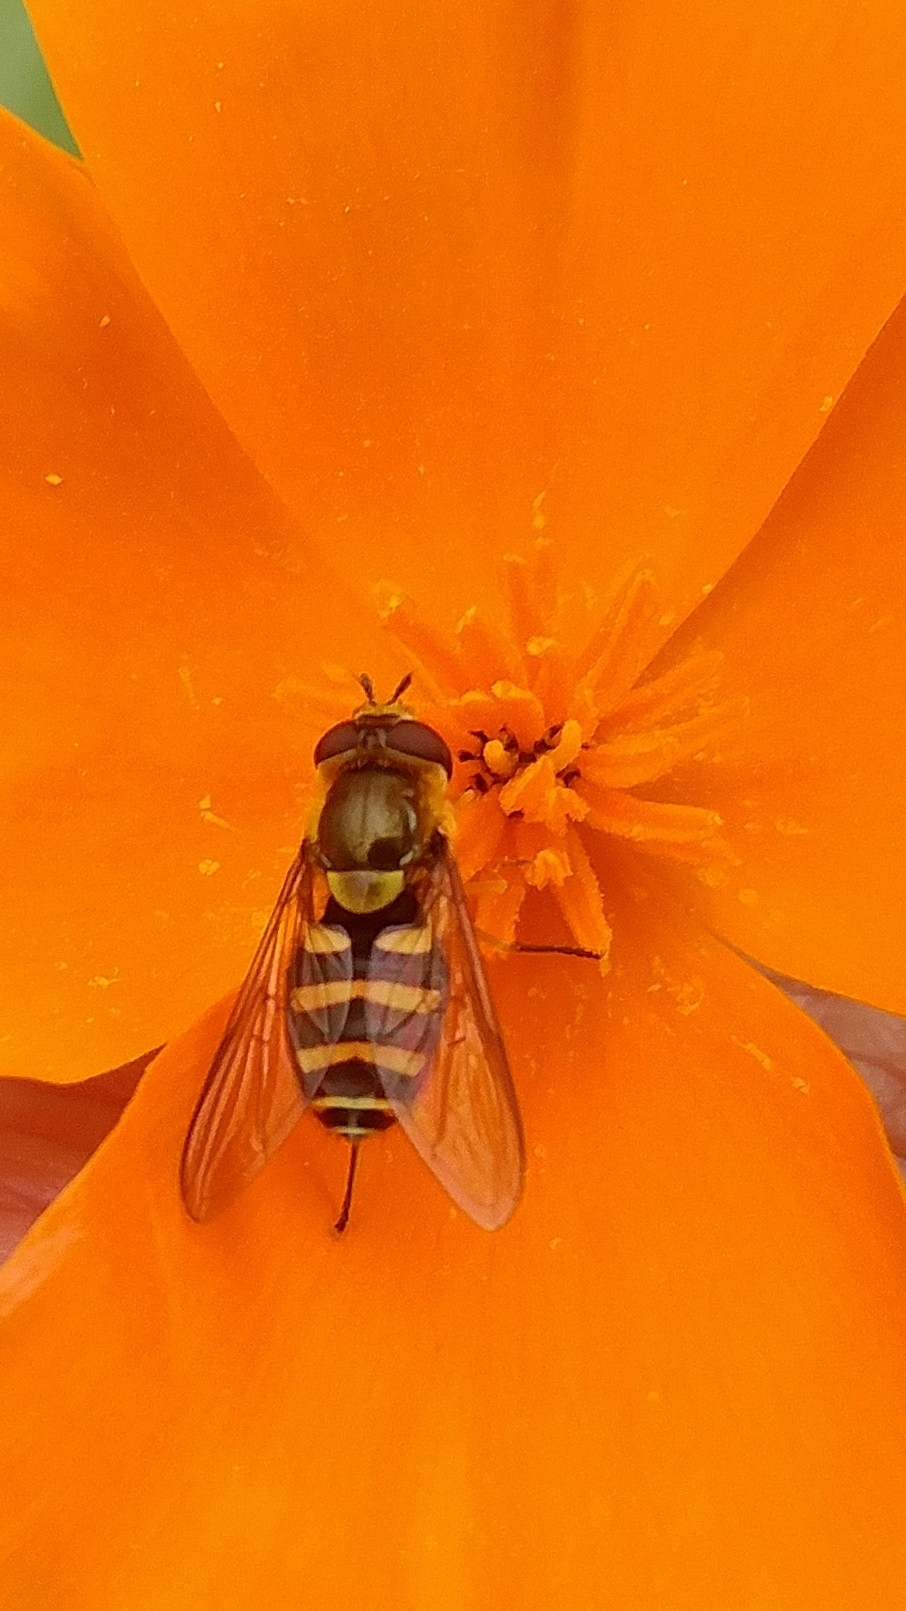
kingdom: Animalia
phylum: Arthropoda
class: Insecta
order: Diptera
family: Syrphidae
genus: Syrphus
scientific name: Syrphus opinator
